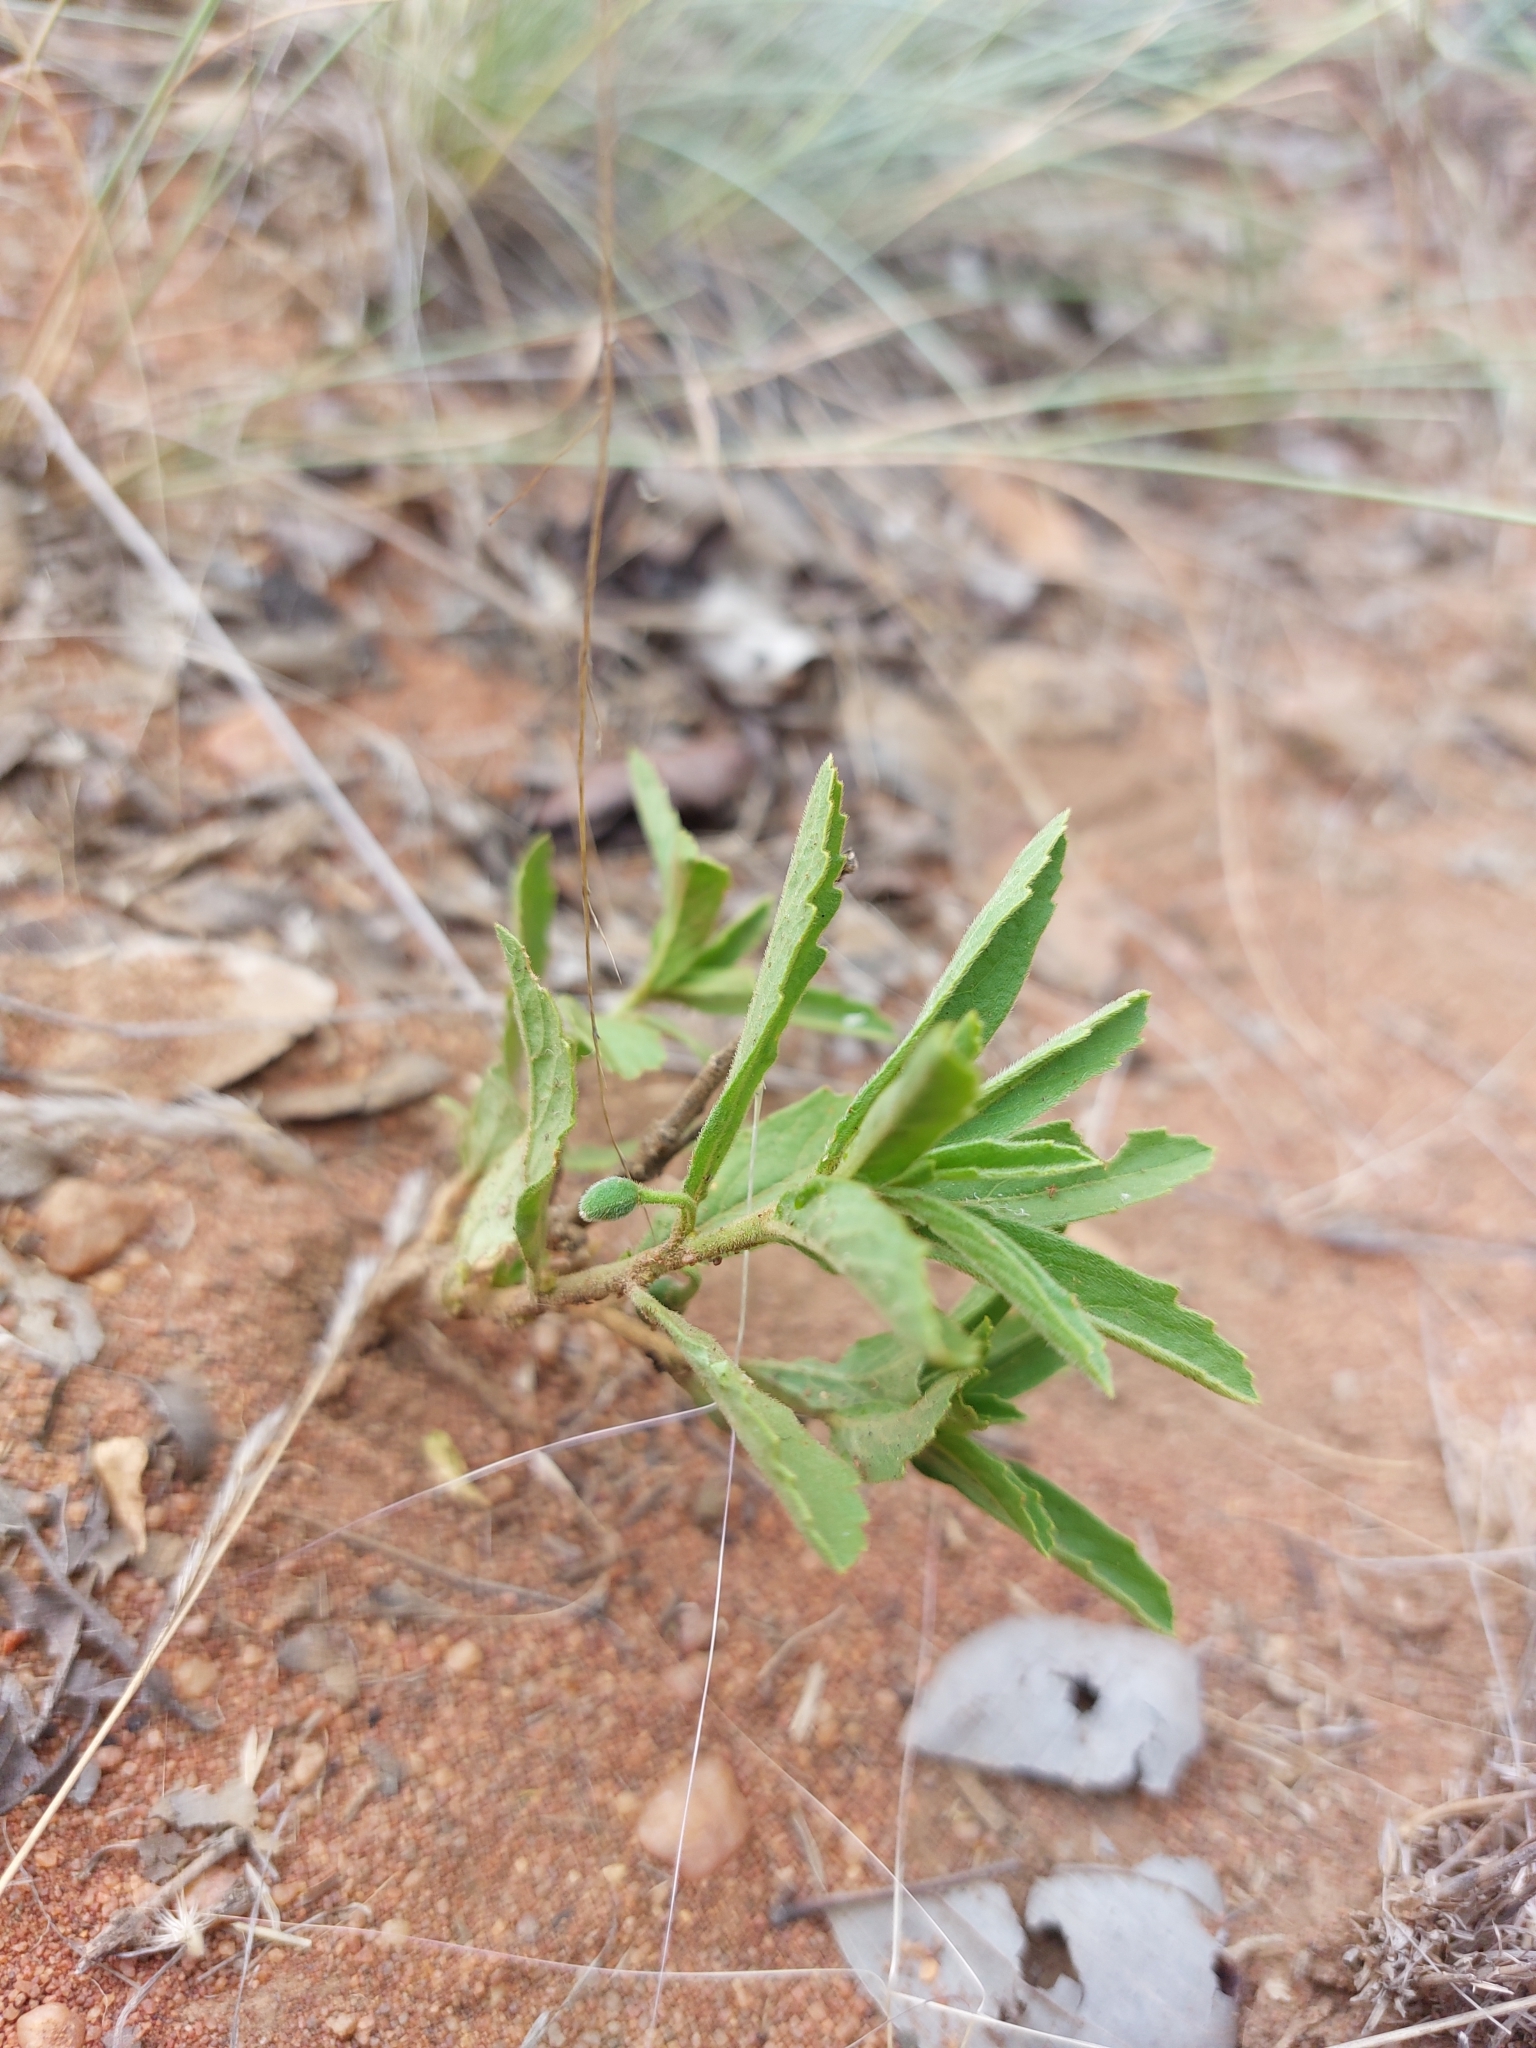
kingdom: Plantae
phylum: Tracheophyta
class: Magnoliopsida
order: Malpighiales
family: Turneraceae
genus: Afroqueta
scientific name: Afroqueta capensis
